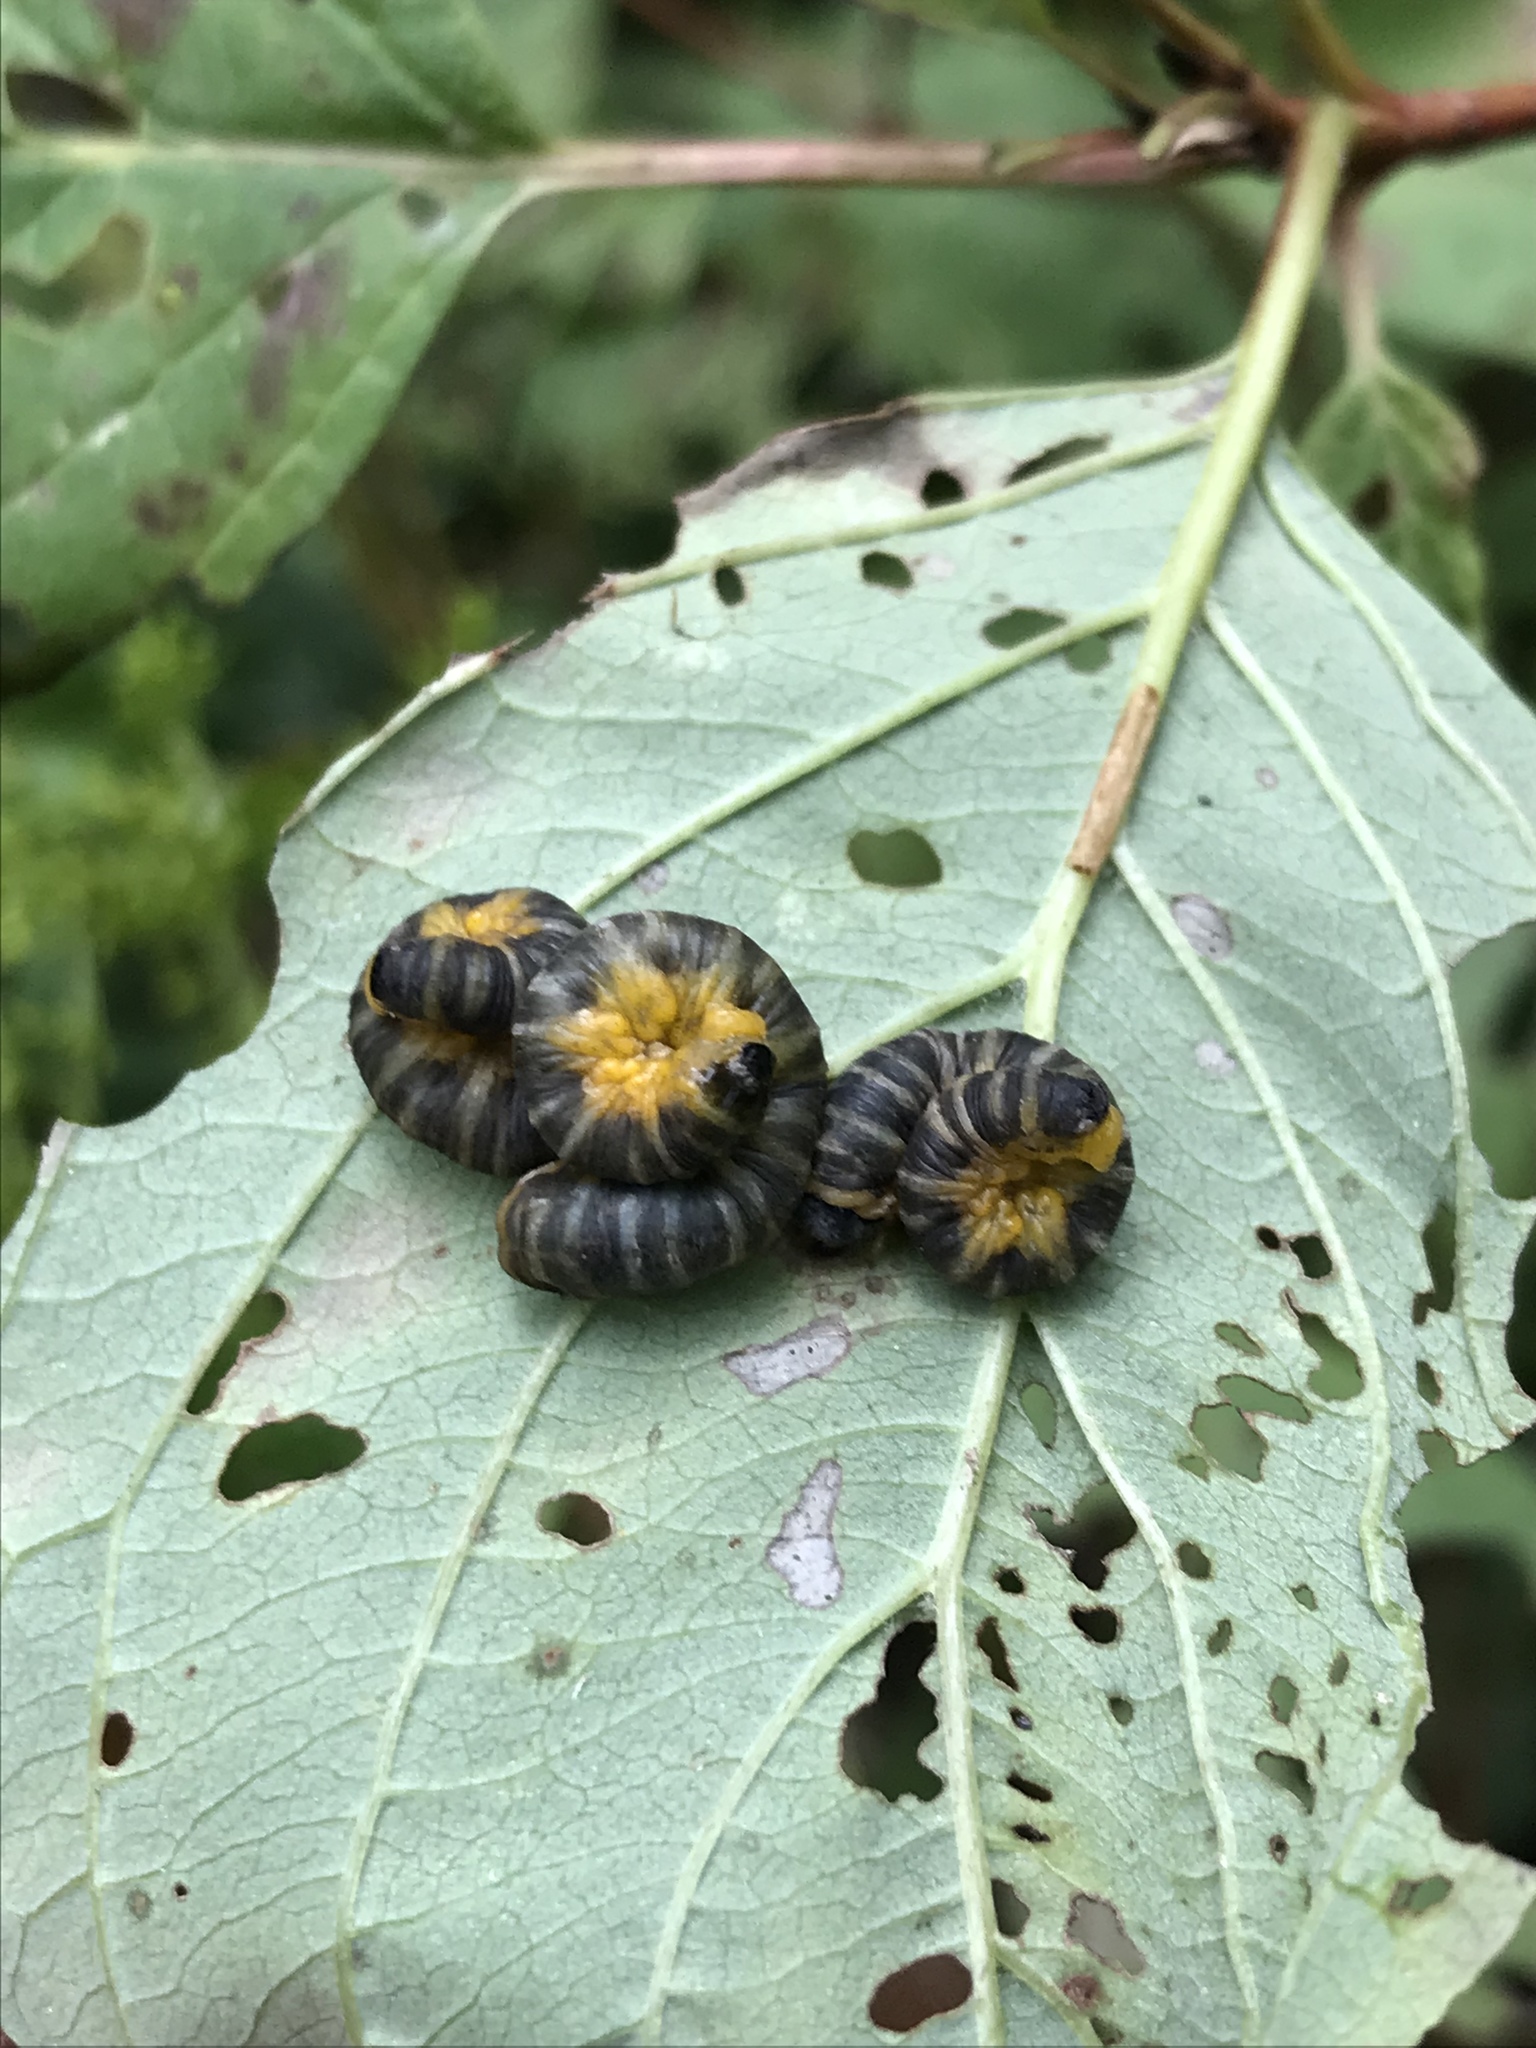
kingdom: Animalia
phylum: Arthropoda
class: Insecta
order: Hymenoptera
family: Tenthredinidae
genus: Macremphytus
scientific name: Macremphytus
